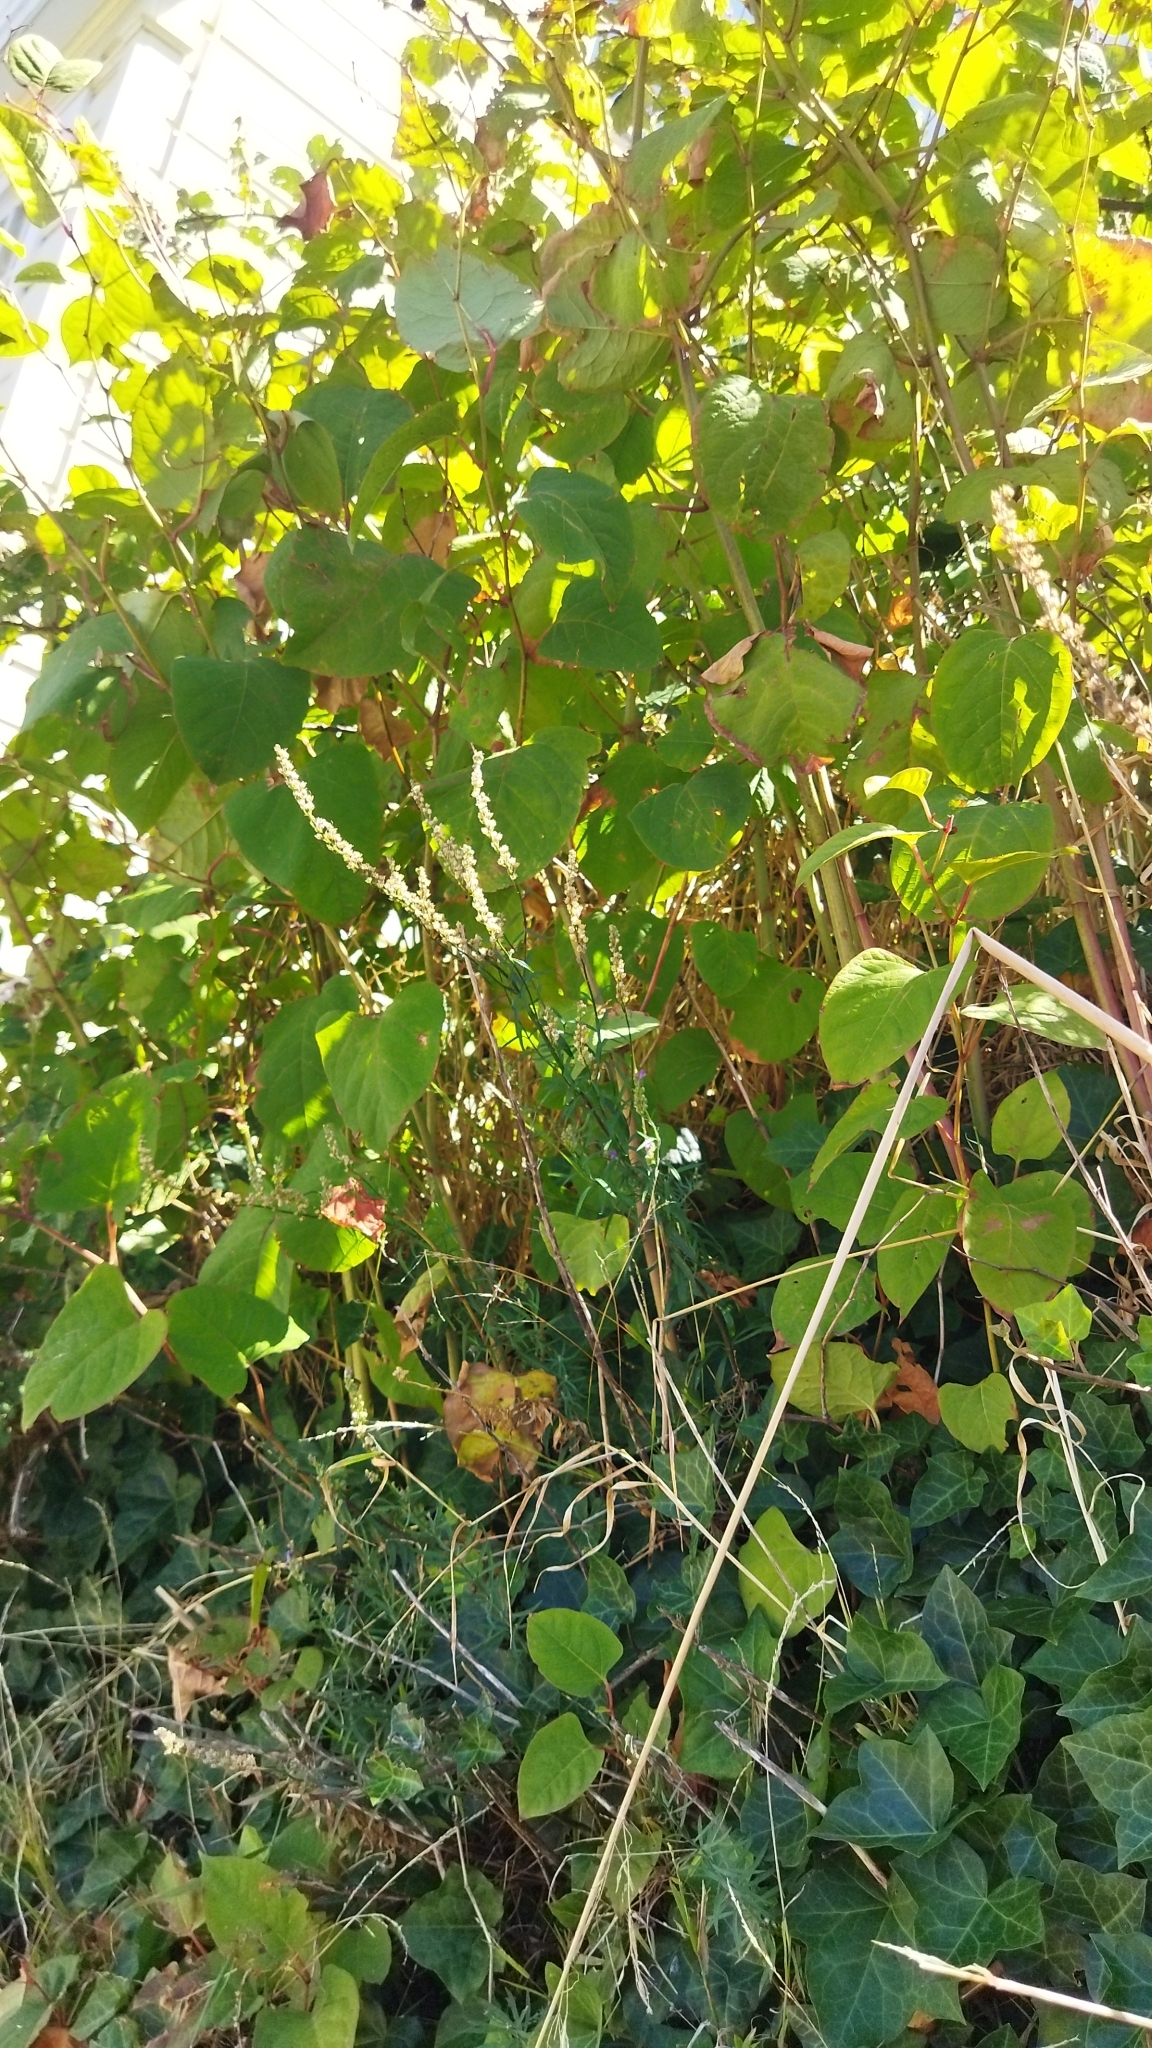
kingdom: Plantae
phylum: Tracheophyta
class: Magnoliopsida
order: Caryophyllales
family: Polygonaceae
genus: Reynoutria
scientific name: Reynoutria japonica
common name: Japanese knotweed
